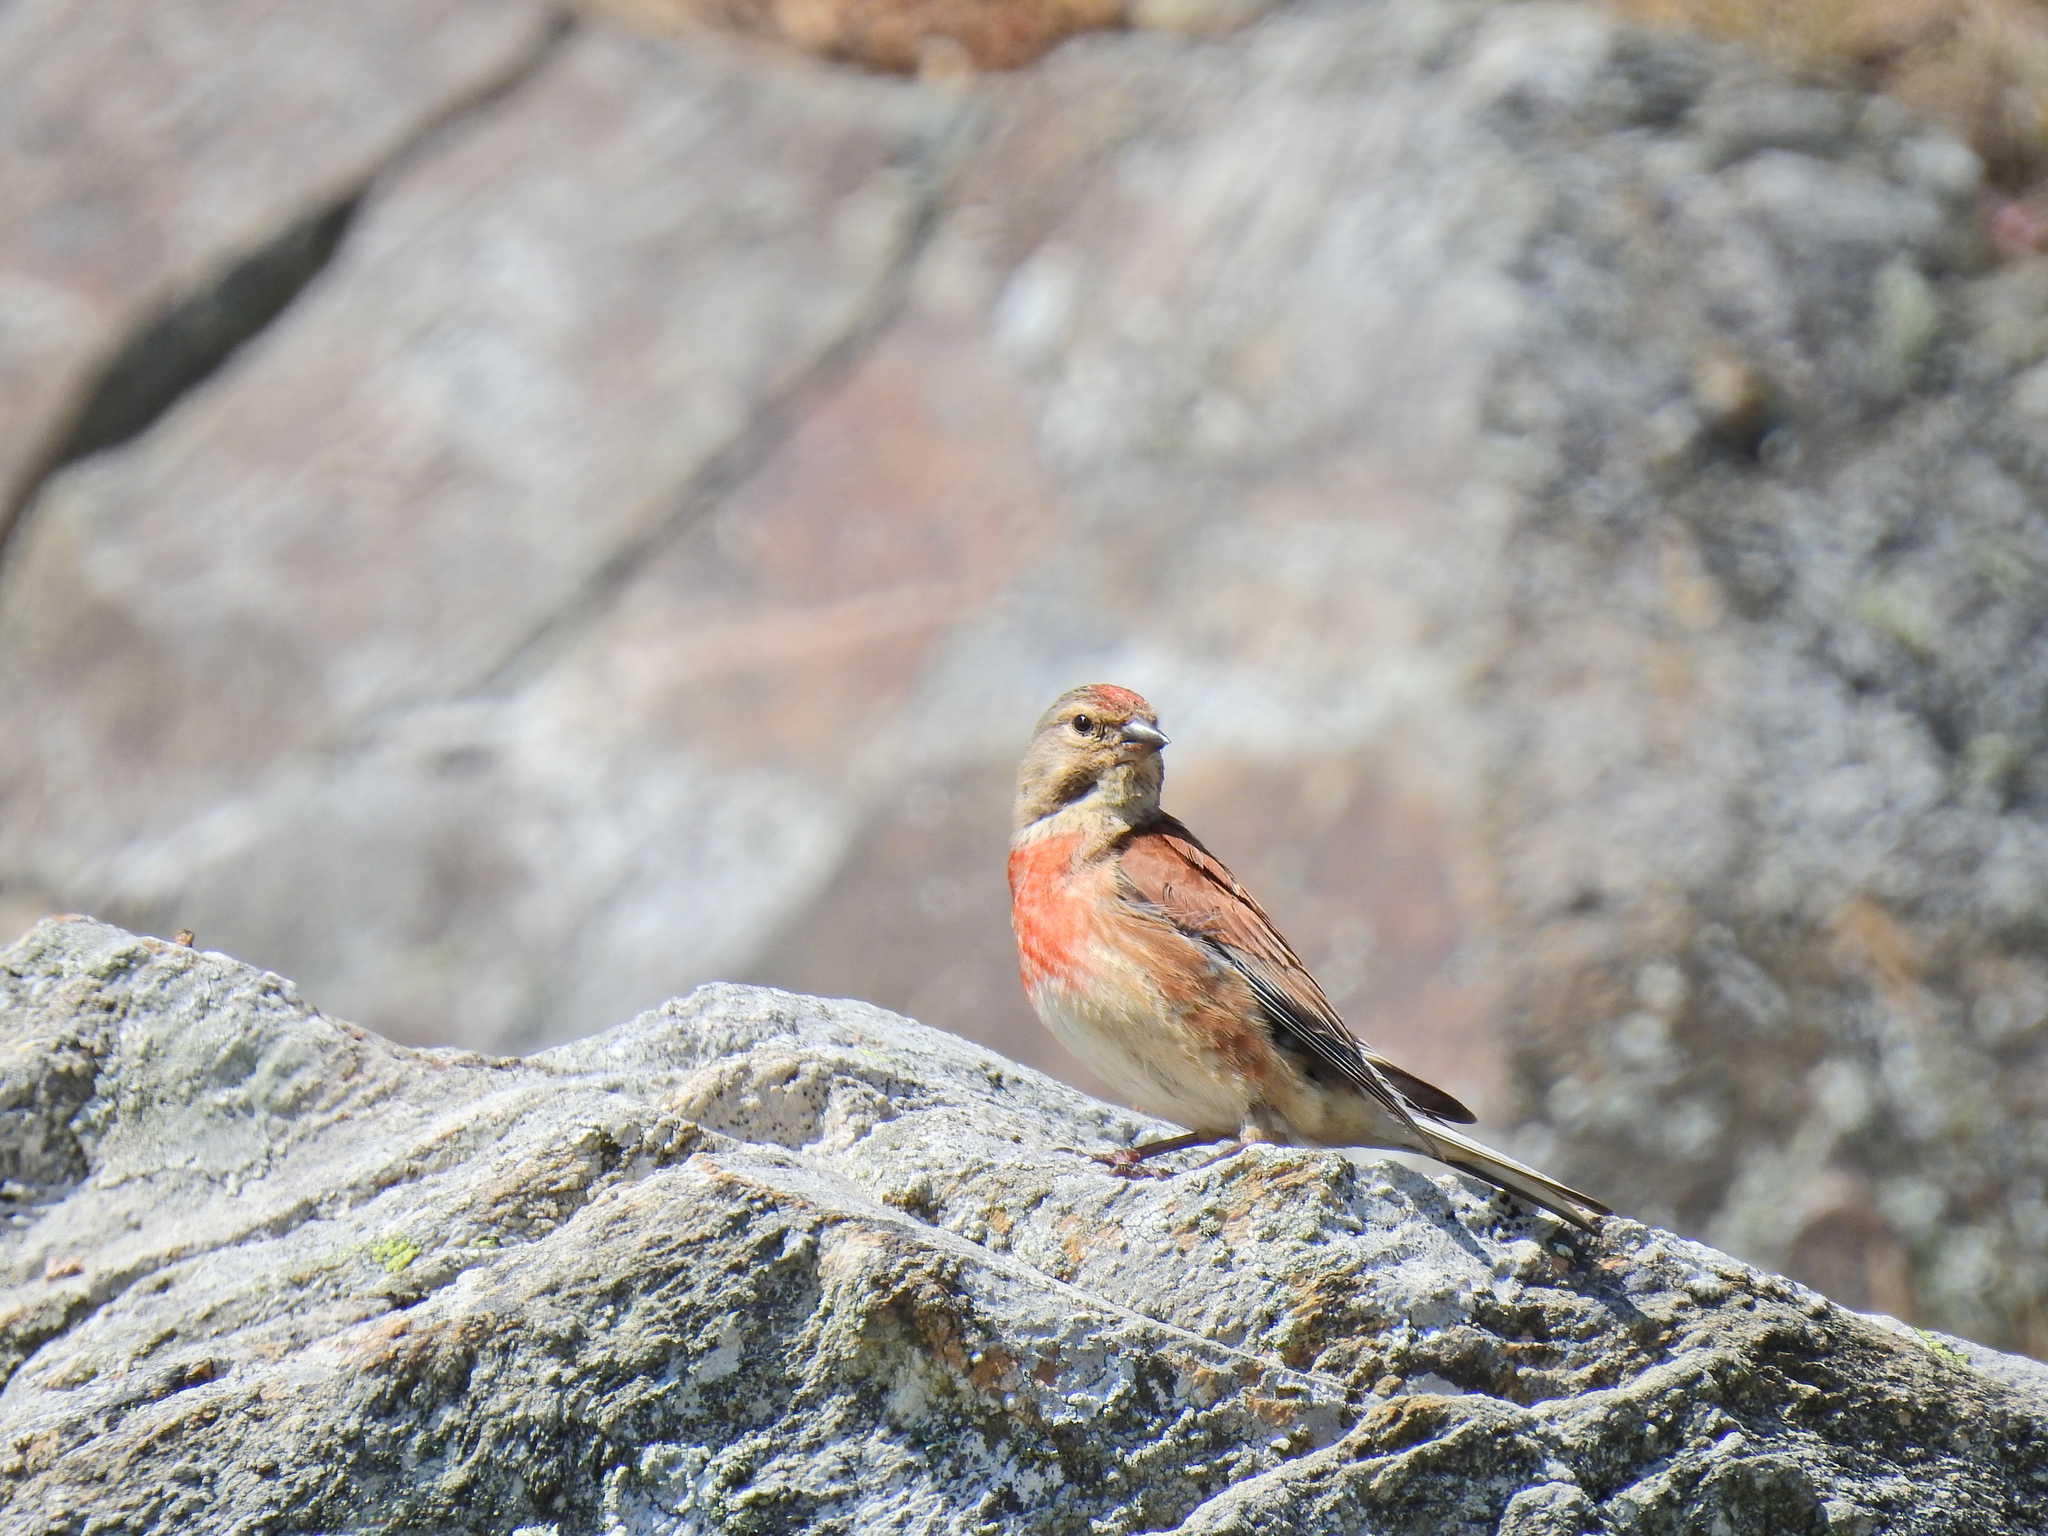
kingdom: Animalia
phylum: Chordata
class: Aves
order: Passeriformes
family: Fringillidae
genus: Linaria
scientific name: Linaria cannabina
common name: Common linnet
